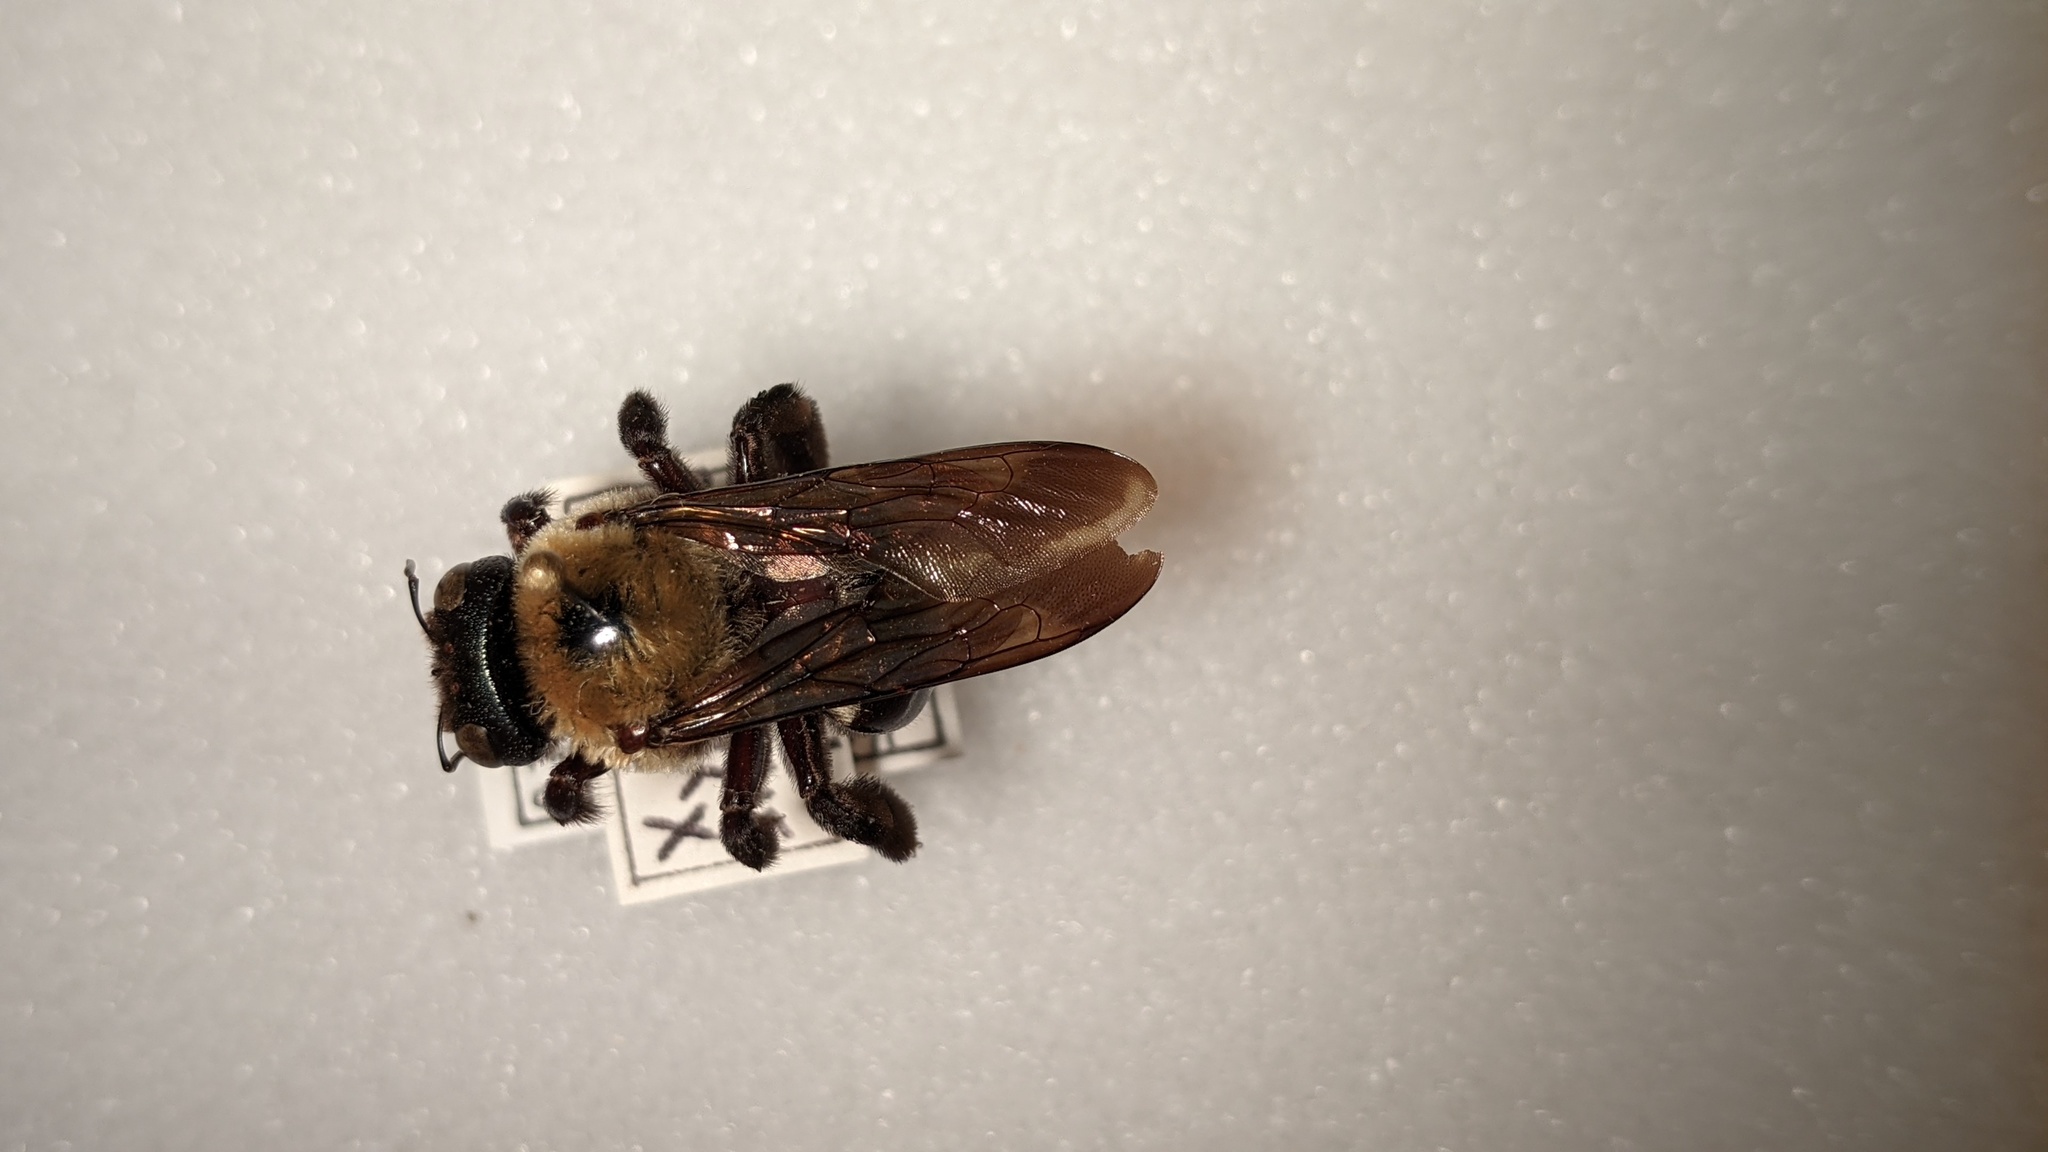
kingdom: Animalia
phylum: Arthropoda
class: Insecta
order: Hymenoptera
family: Apidae
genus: Xylocopa
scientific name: Xylocopa virginica
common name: Carpenter bee
